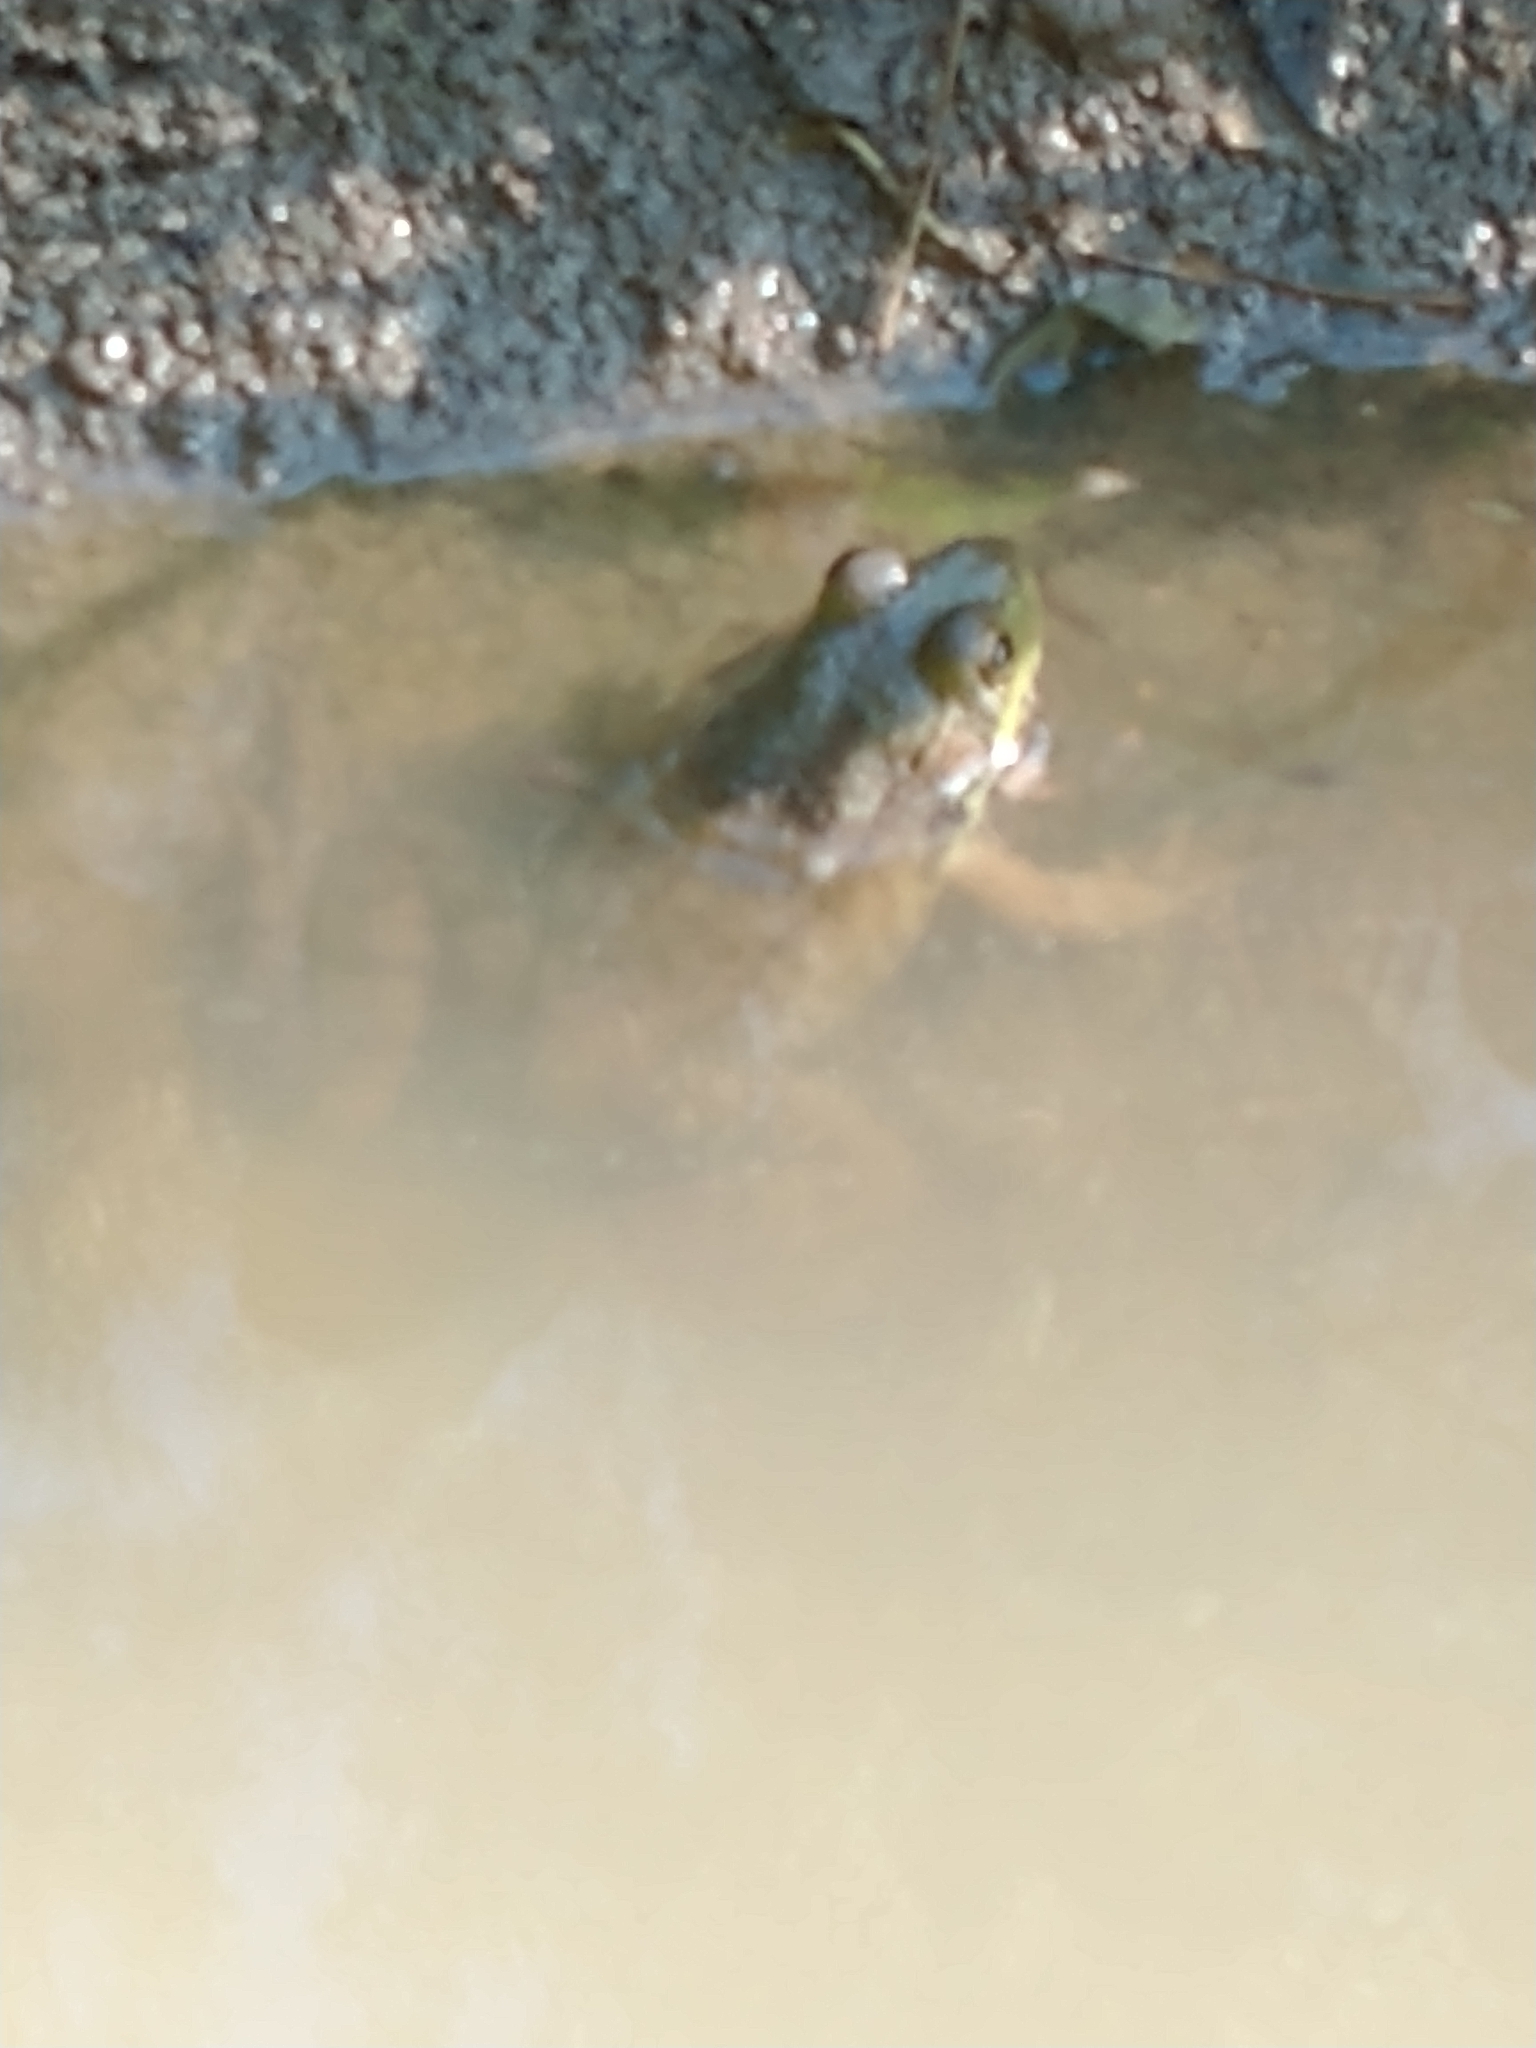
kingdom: Animalia
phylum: Chordata
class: Amphibia
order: Anura
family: Ranidae
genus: Lithobates
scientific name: Lithobates clamitans
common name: Green frog
